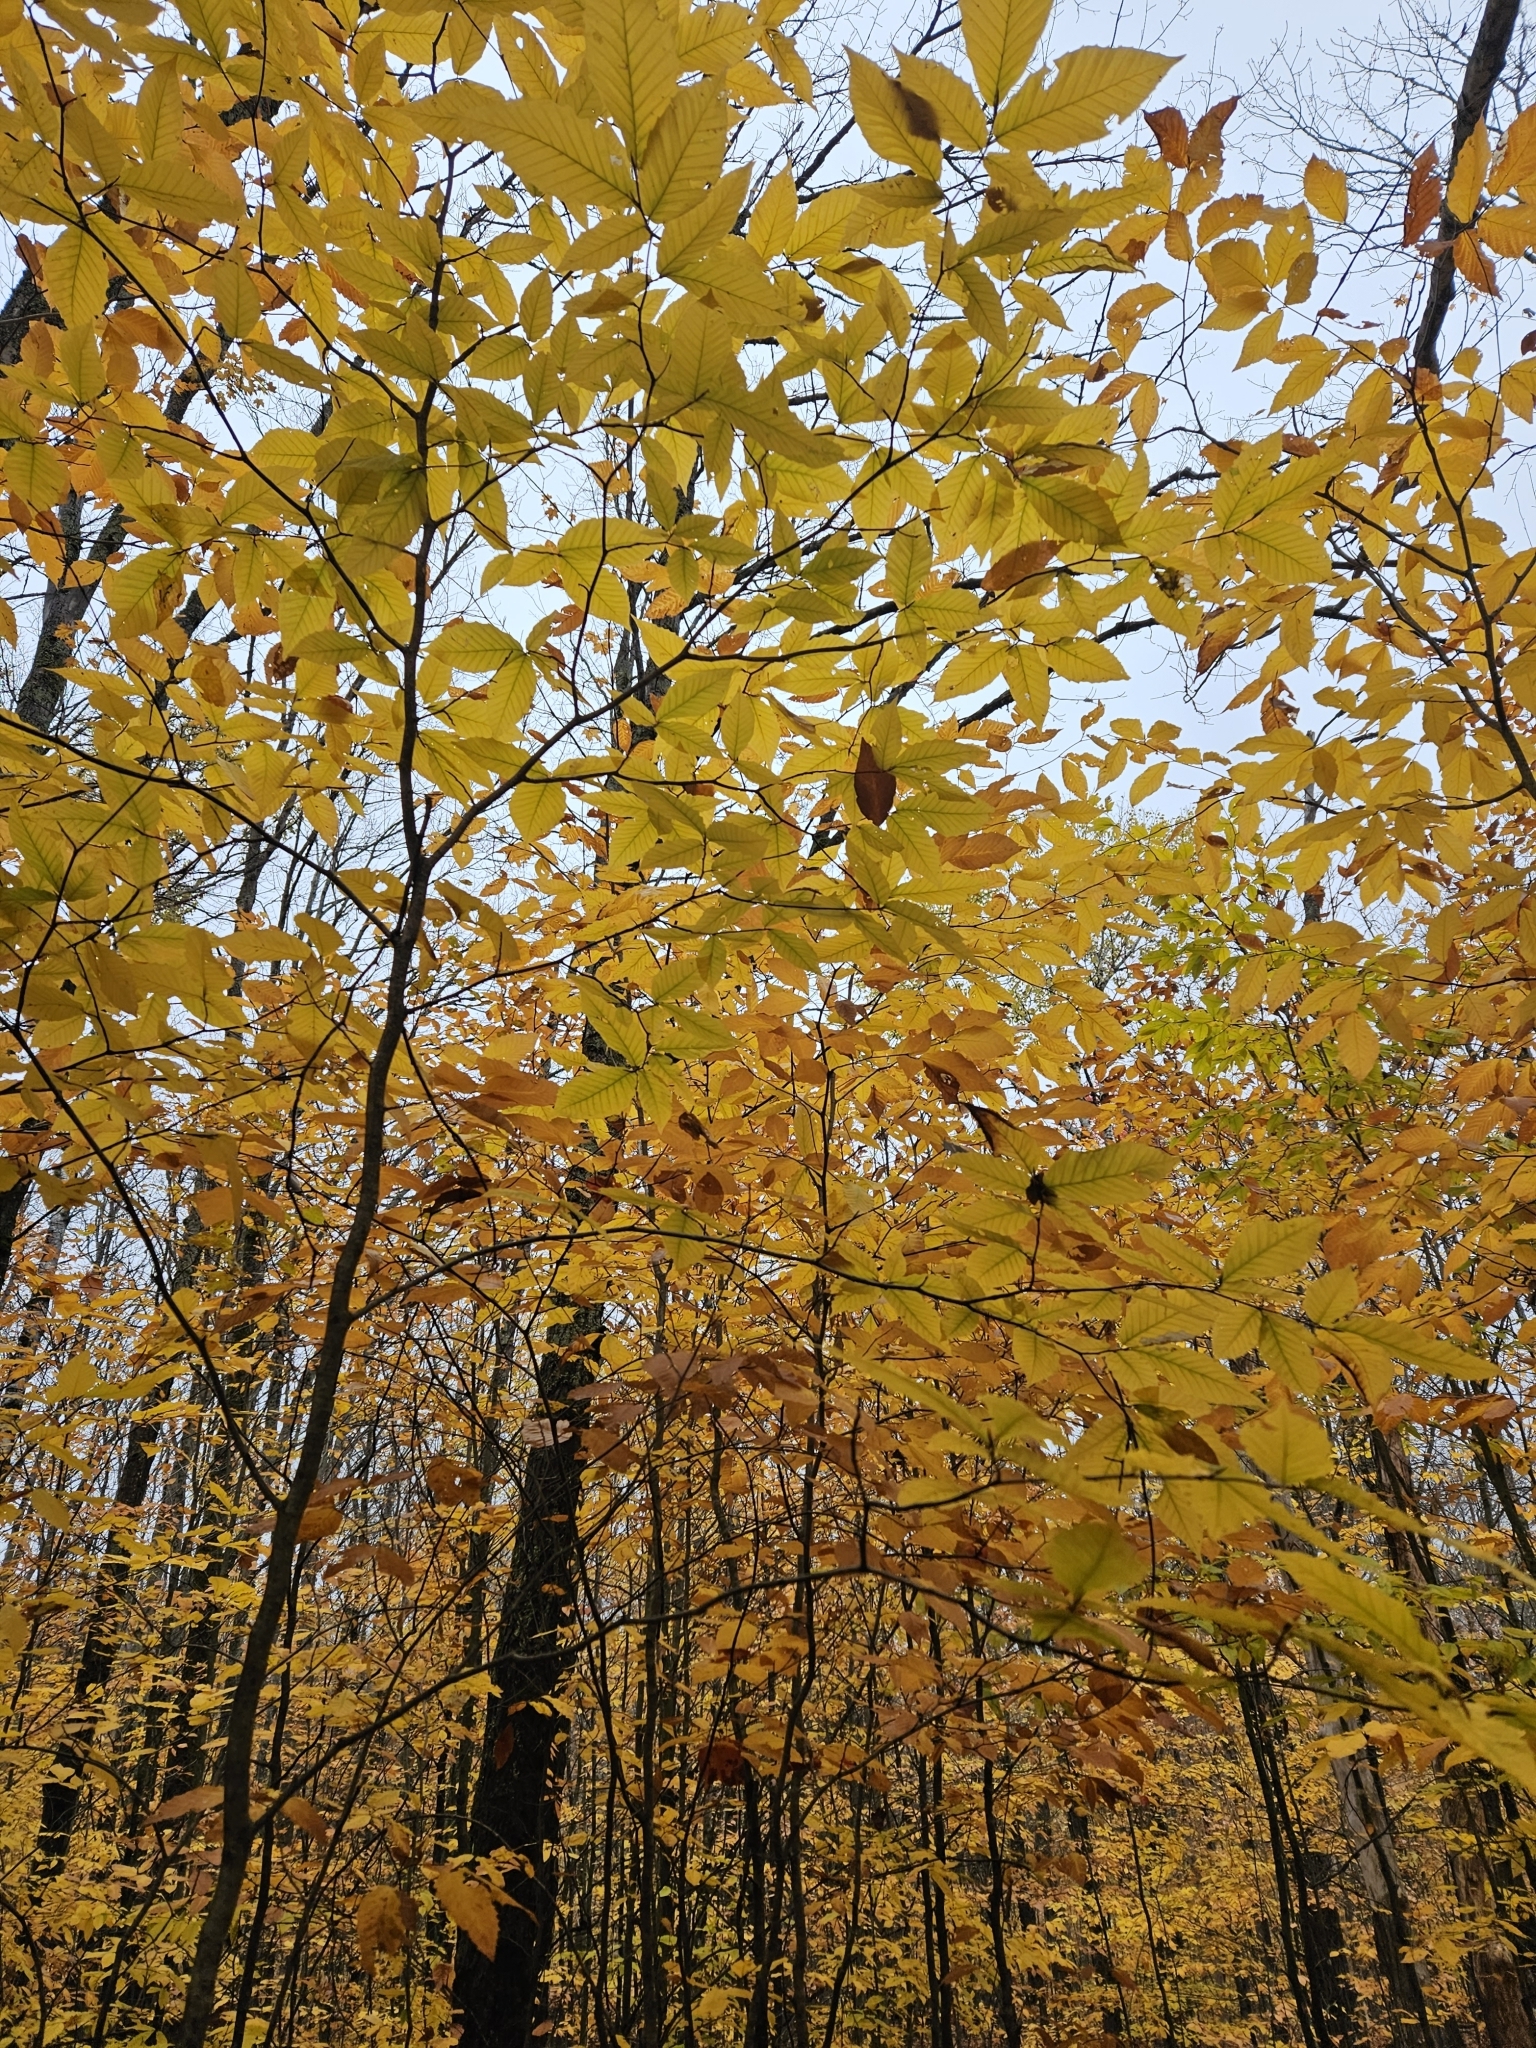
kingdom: Plantae
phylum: Tracheophyta
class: Magnoliopsida
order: Fagales
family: Fagaceae
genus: Fagus
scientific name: Fagus grandifolia
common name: American beech
